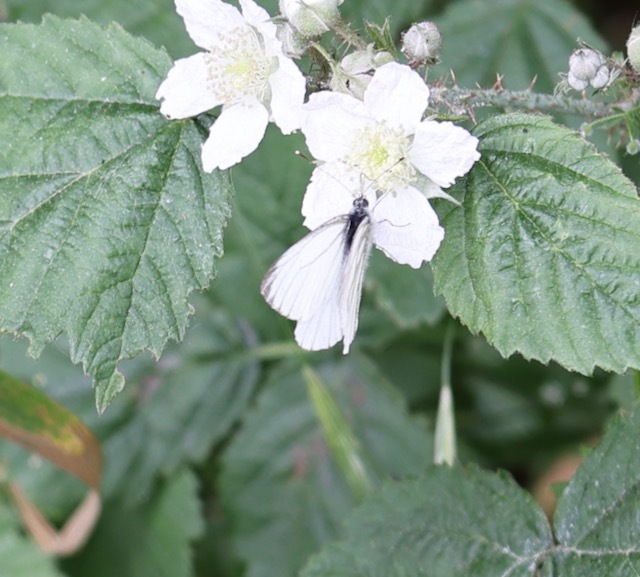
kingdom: Animalia
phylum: Arthropoda
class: Insecta
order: Lepidoptera
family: Pieridae
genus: Pieris
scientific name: Pieris napi
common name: Green-veined white
